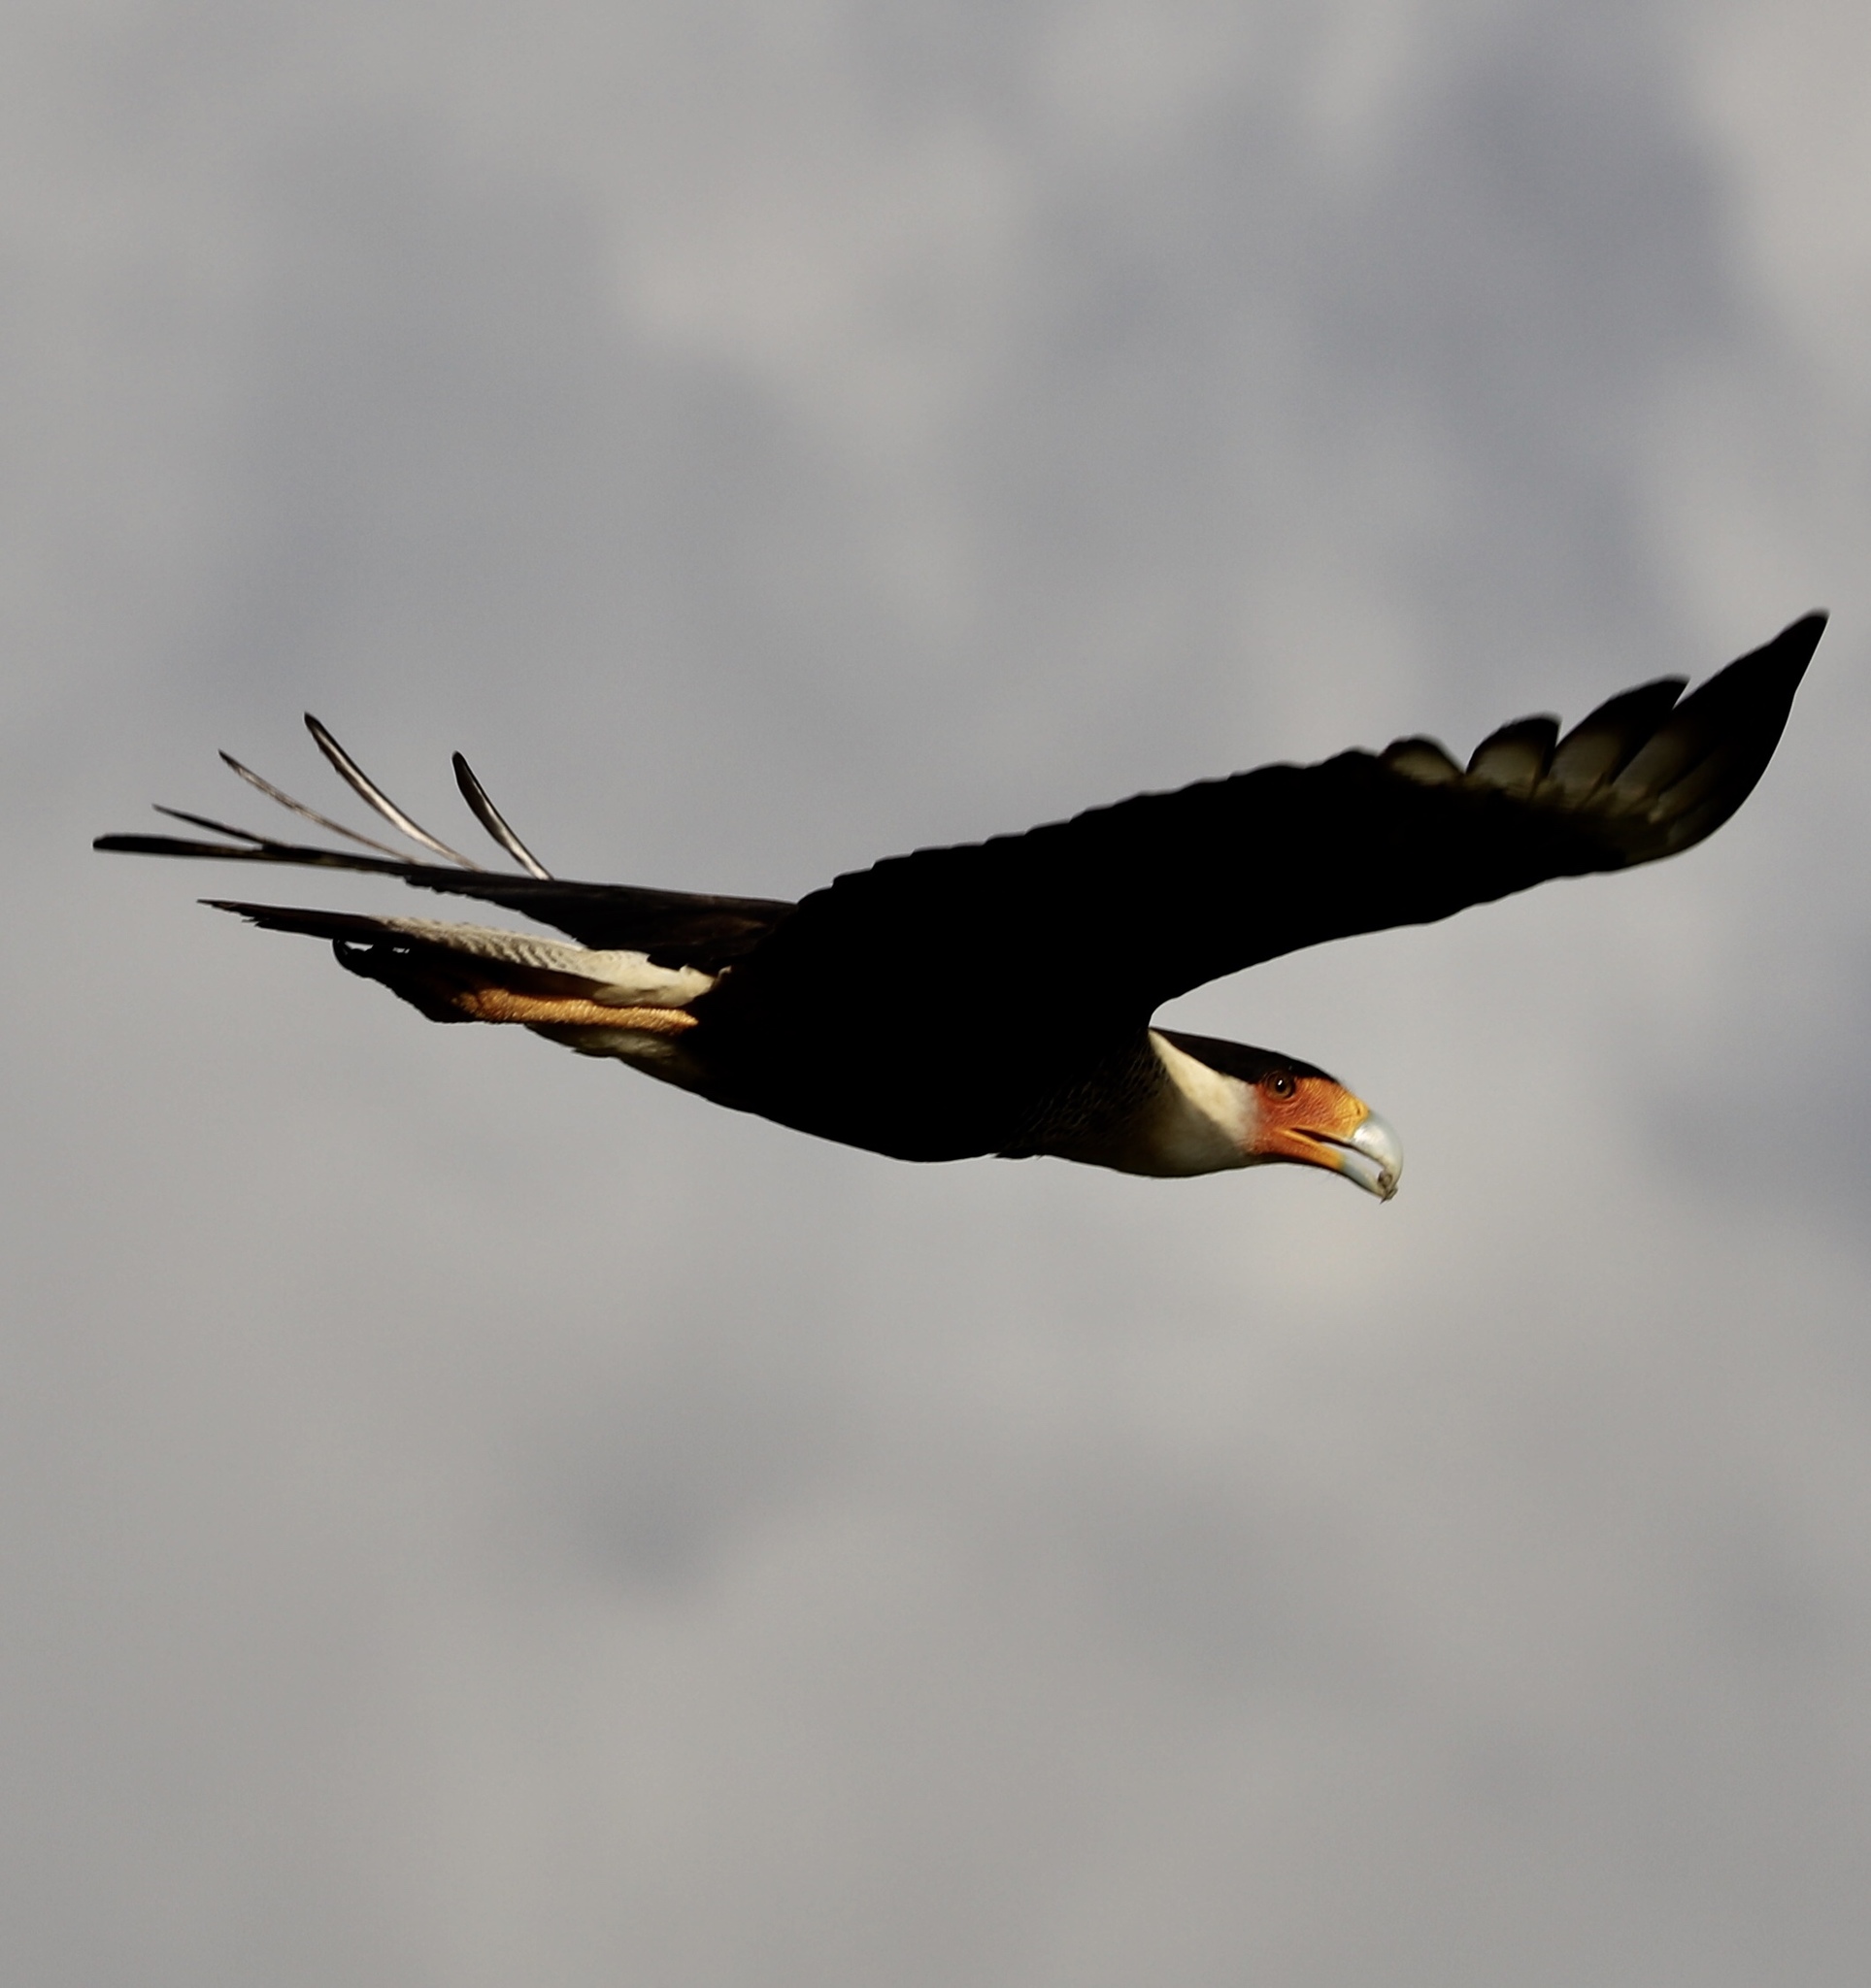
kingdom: Animalia
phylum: Chordata
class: Aves
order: Falconiformes
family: Falconidae
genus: Caracara
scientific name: Caracara plancus
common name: Southern caracara
